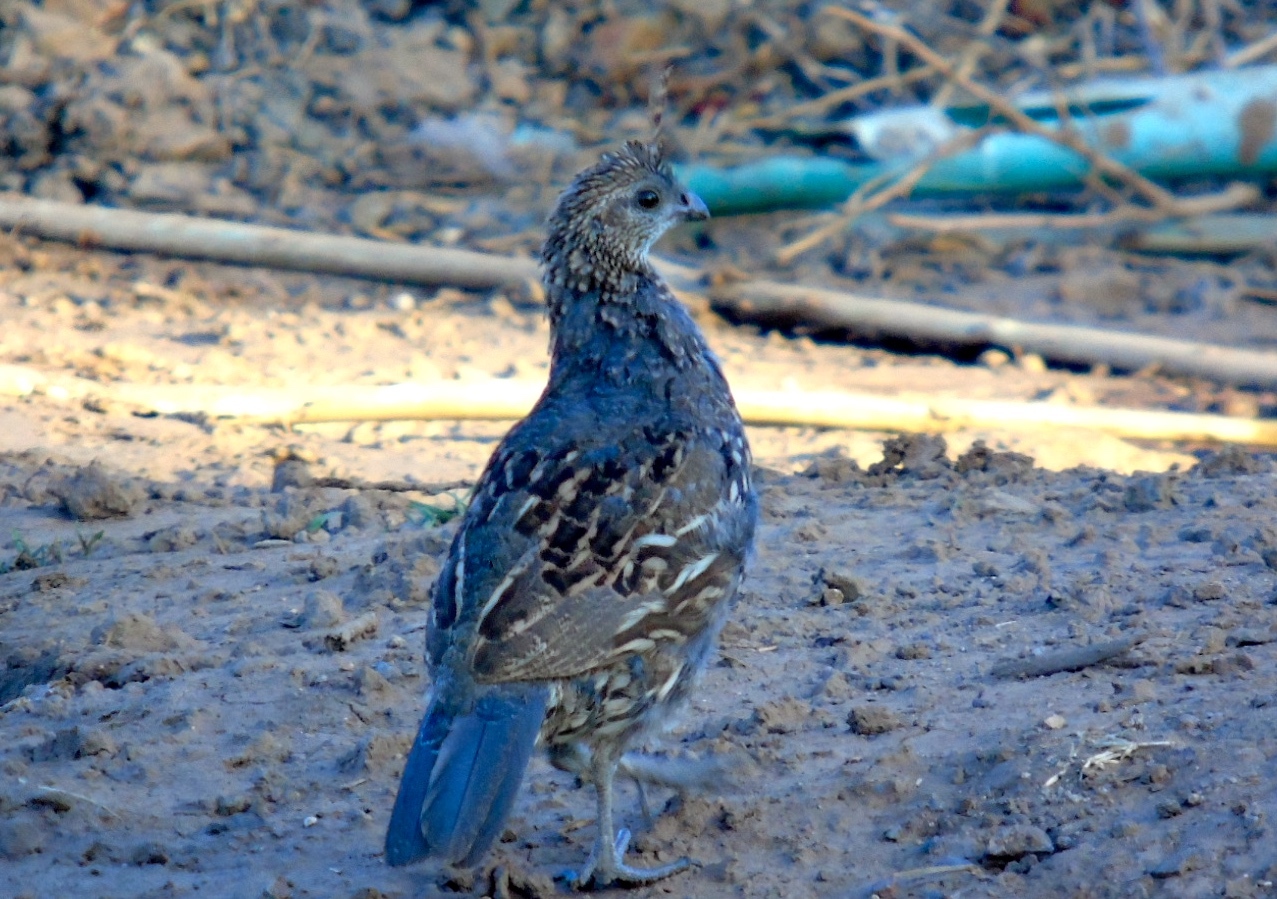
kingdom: Animalia
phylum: Chordata
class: Aves
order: Galliformes
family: Odontophoridae
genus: Callipepla
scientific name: Callipepla douglasii
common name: Elegant quail
